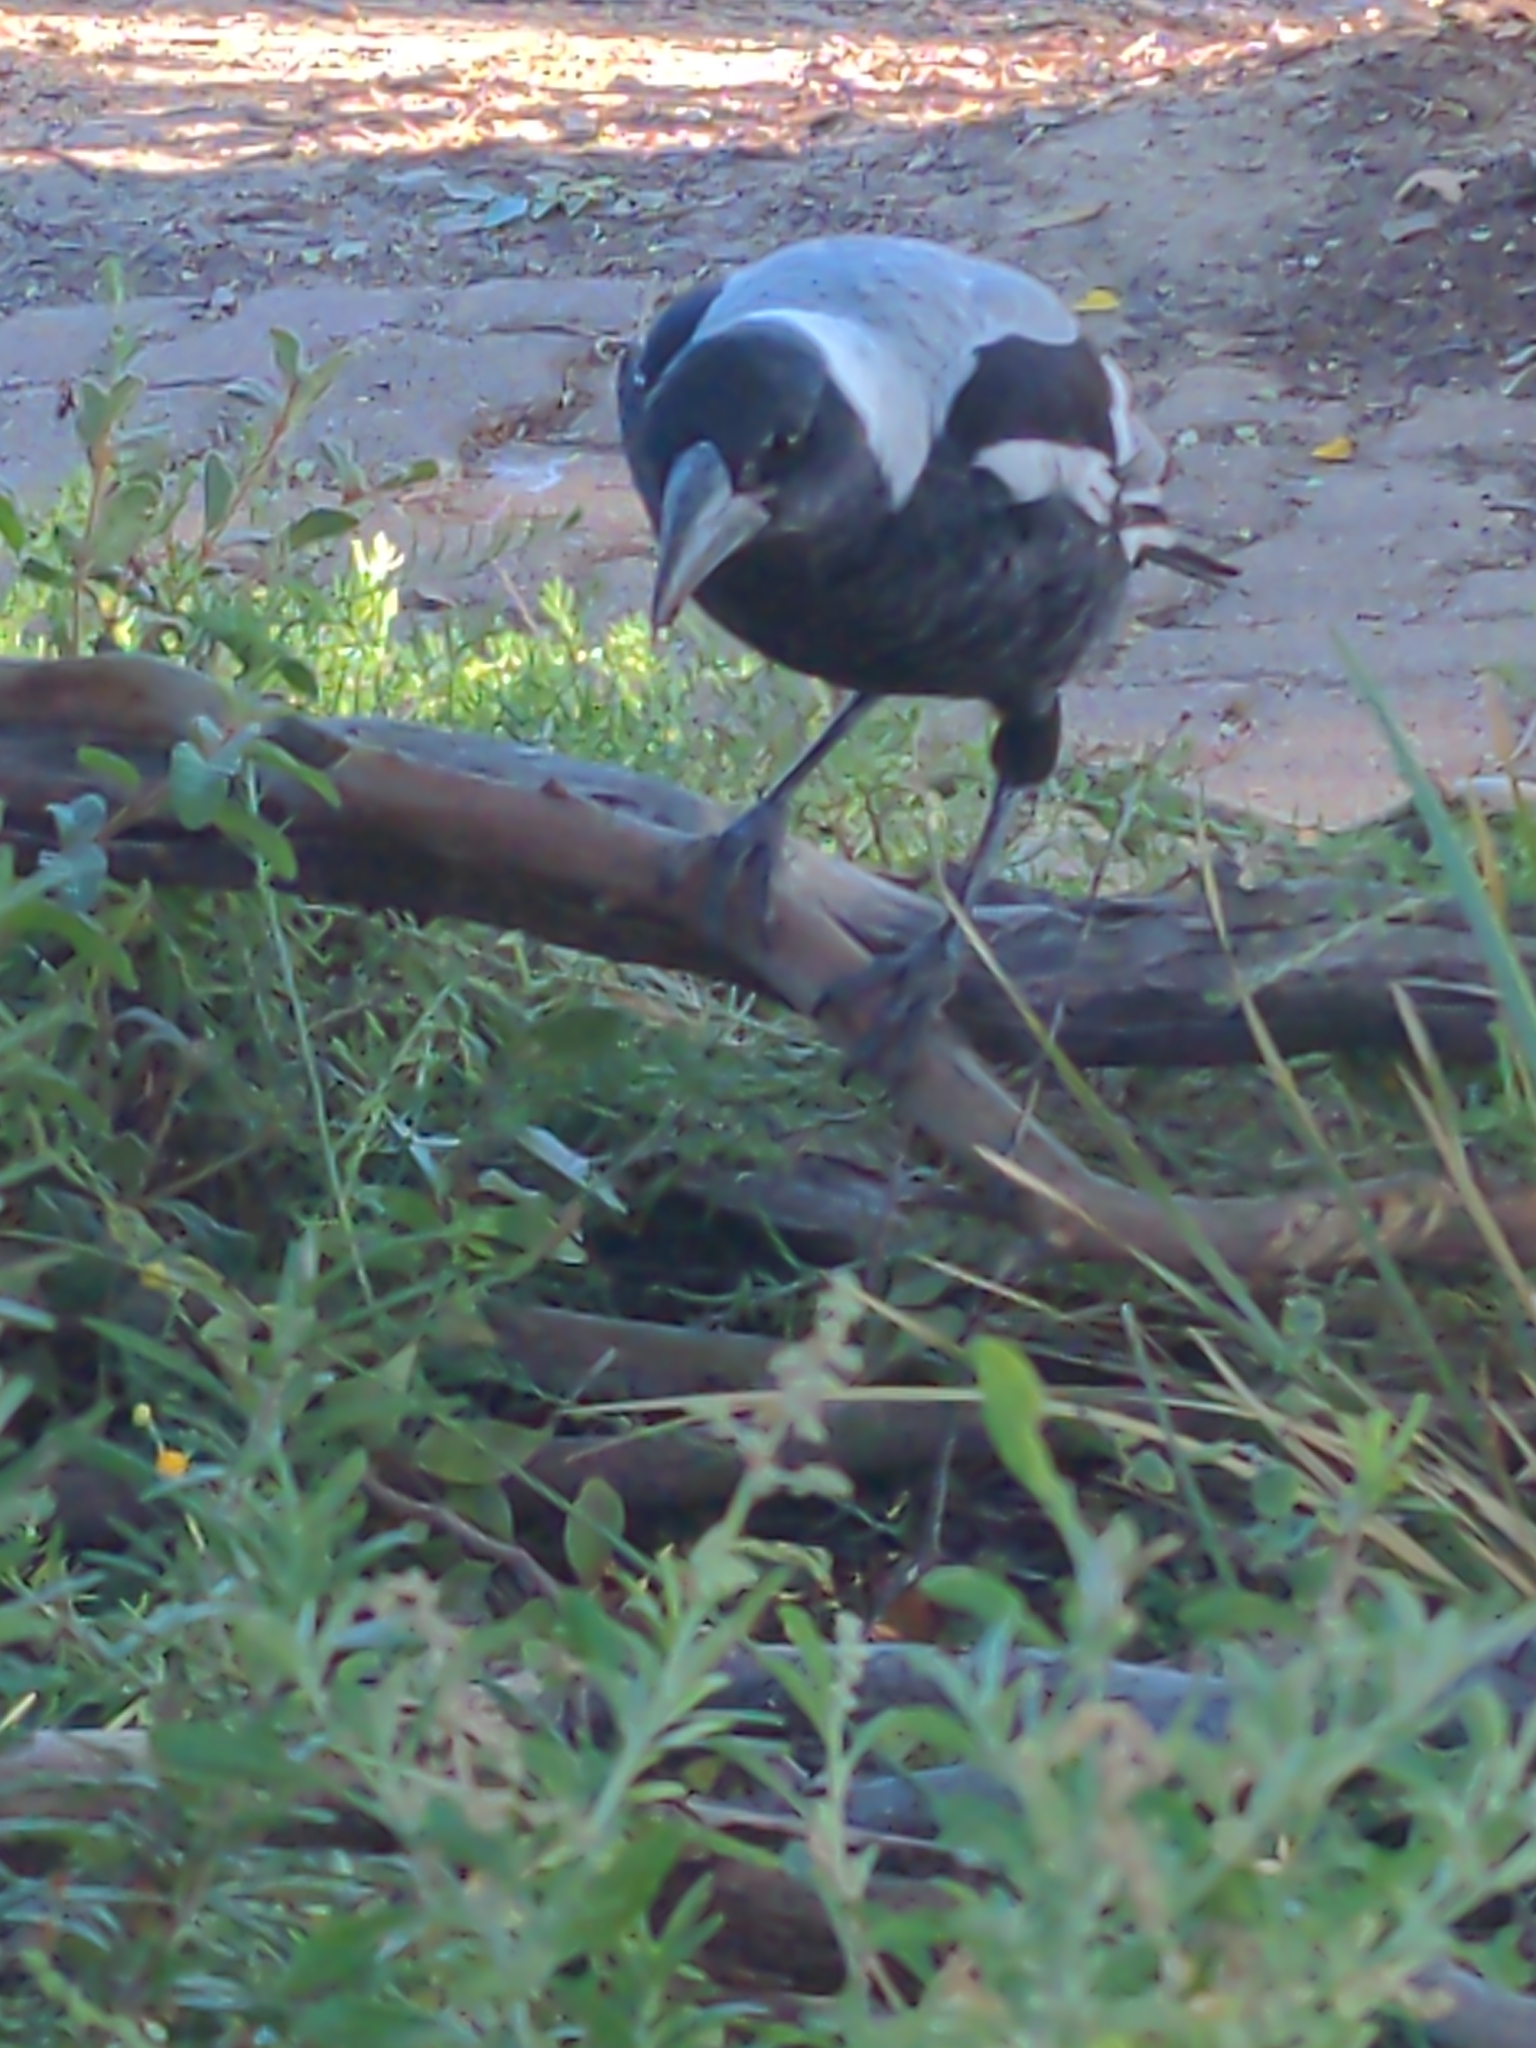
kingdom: Animalia
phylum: Chordata
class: Aves
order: Passeriformes
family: Cracticidae
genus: Gymnorhina
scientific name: Gymnorhina tibicen
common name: Australian magpie
